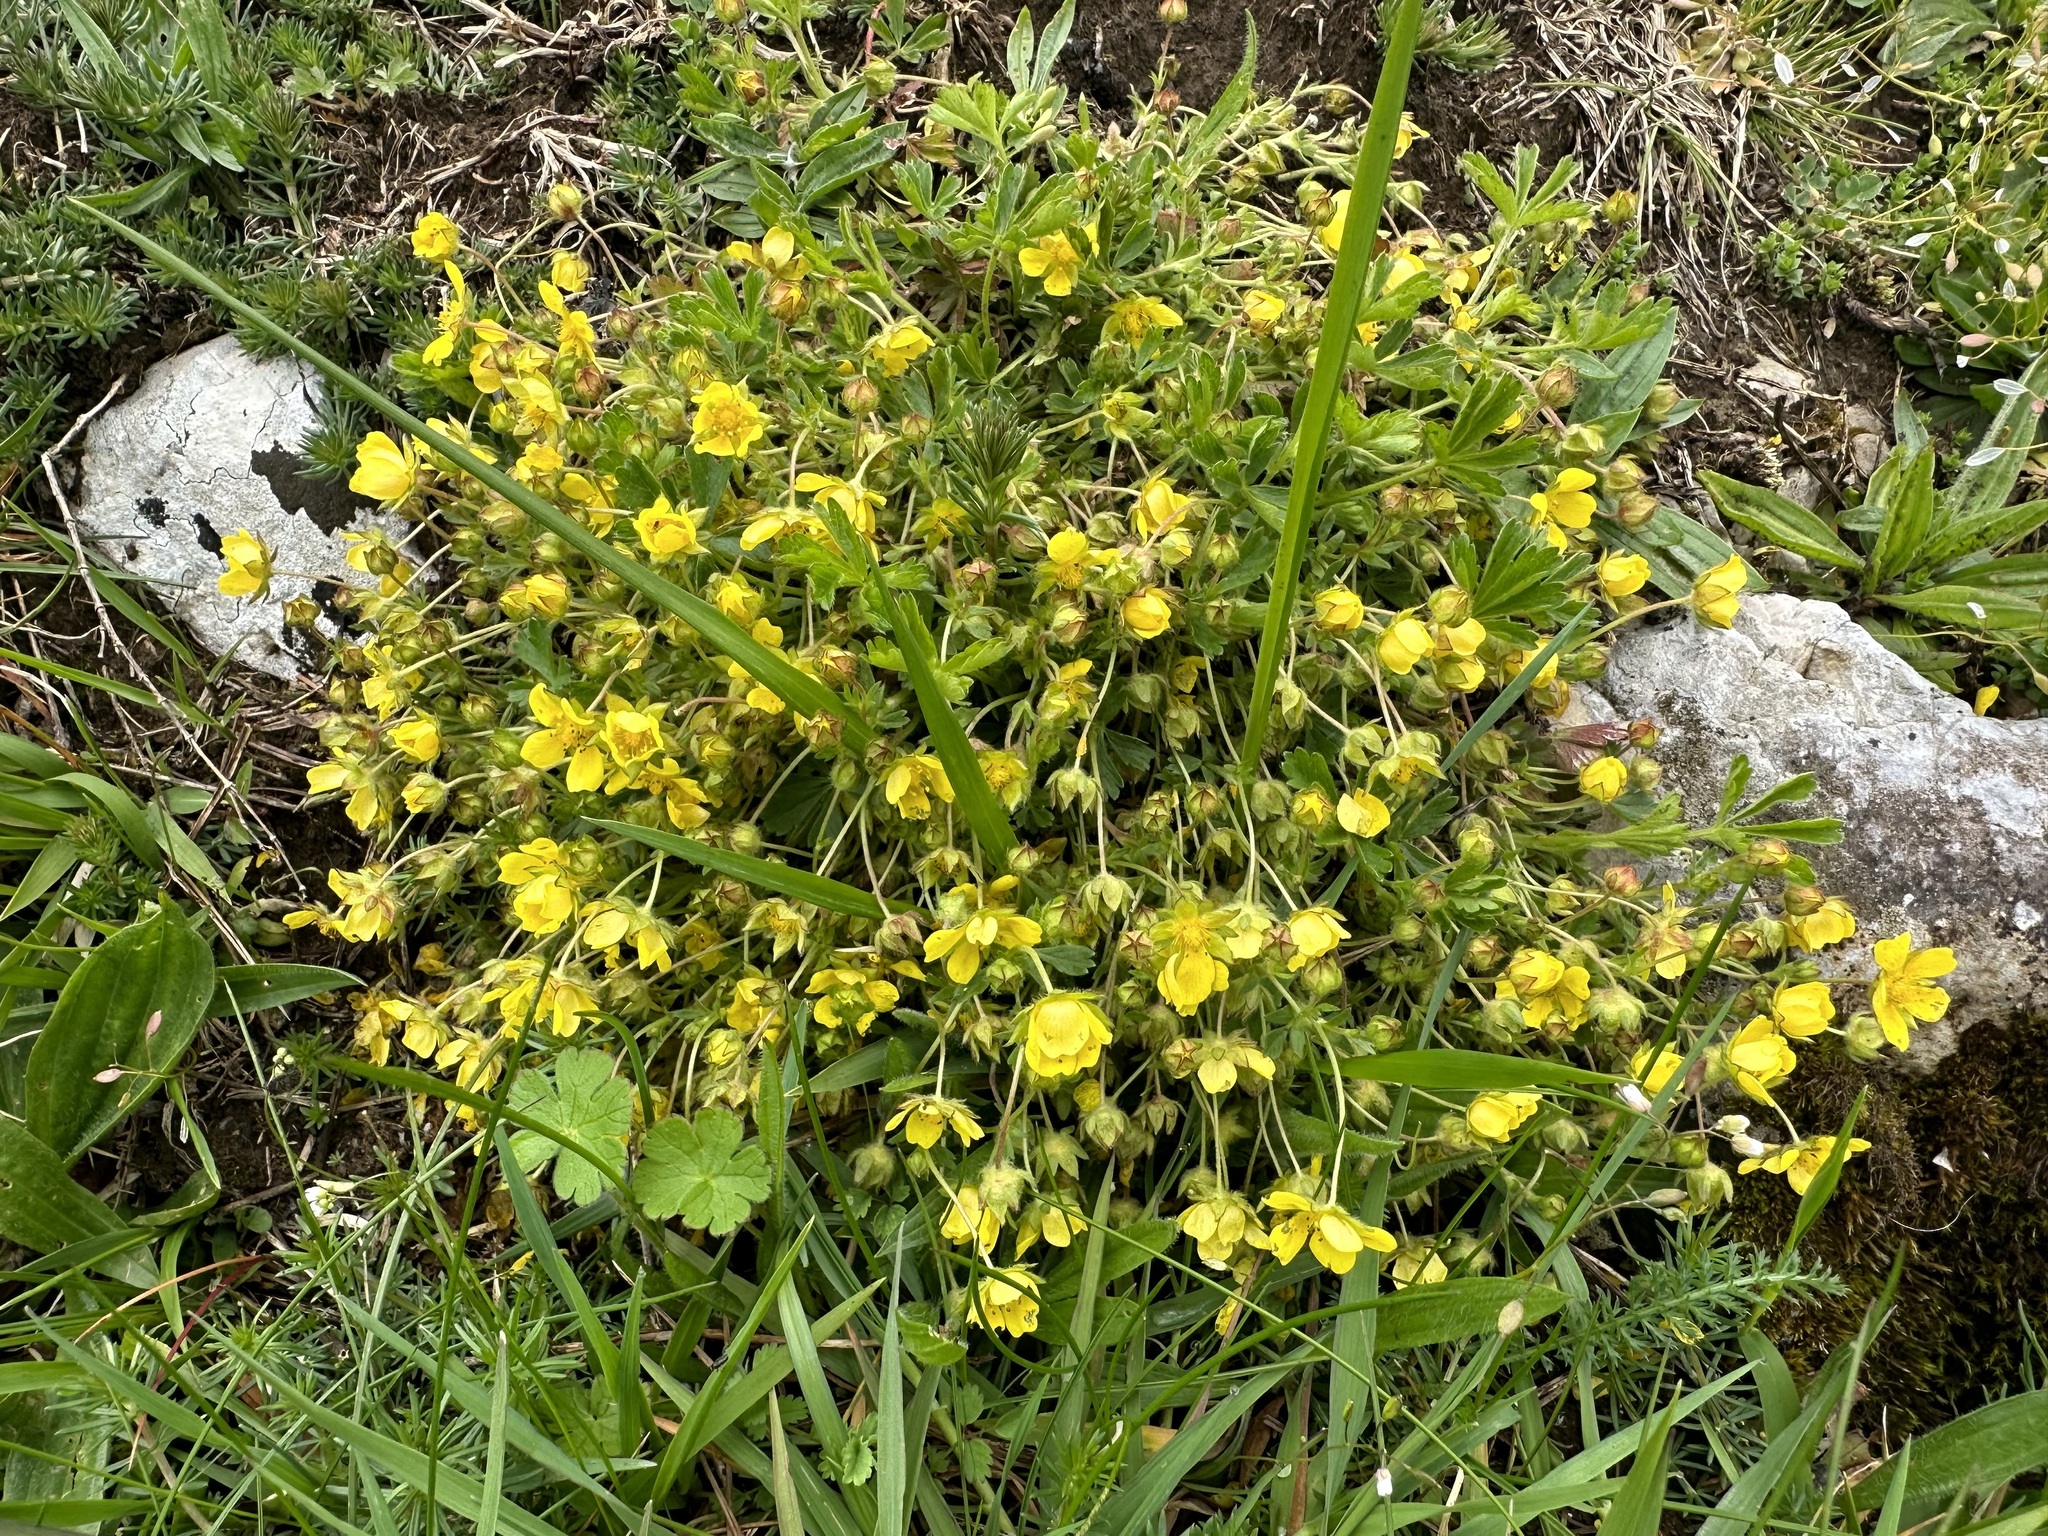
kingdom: Plantae
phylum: Tracheophyta
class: Magnoliopsida
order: Rosales
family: Rosaceae
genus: Potentilla
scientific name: Potentilla verna
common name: Spring cinquefoil
